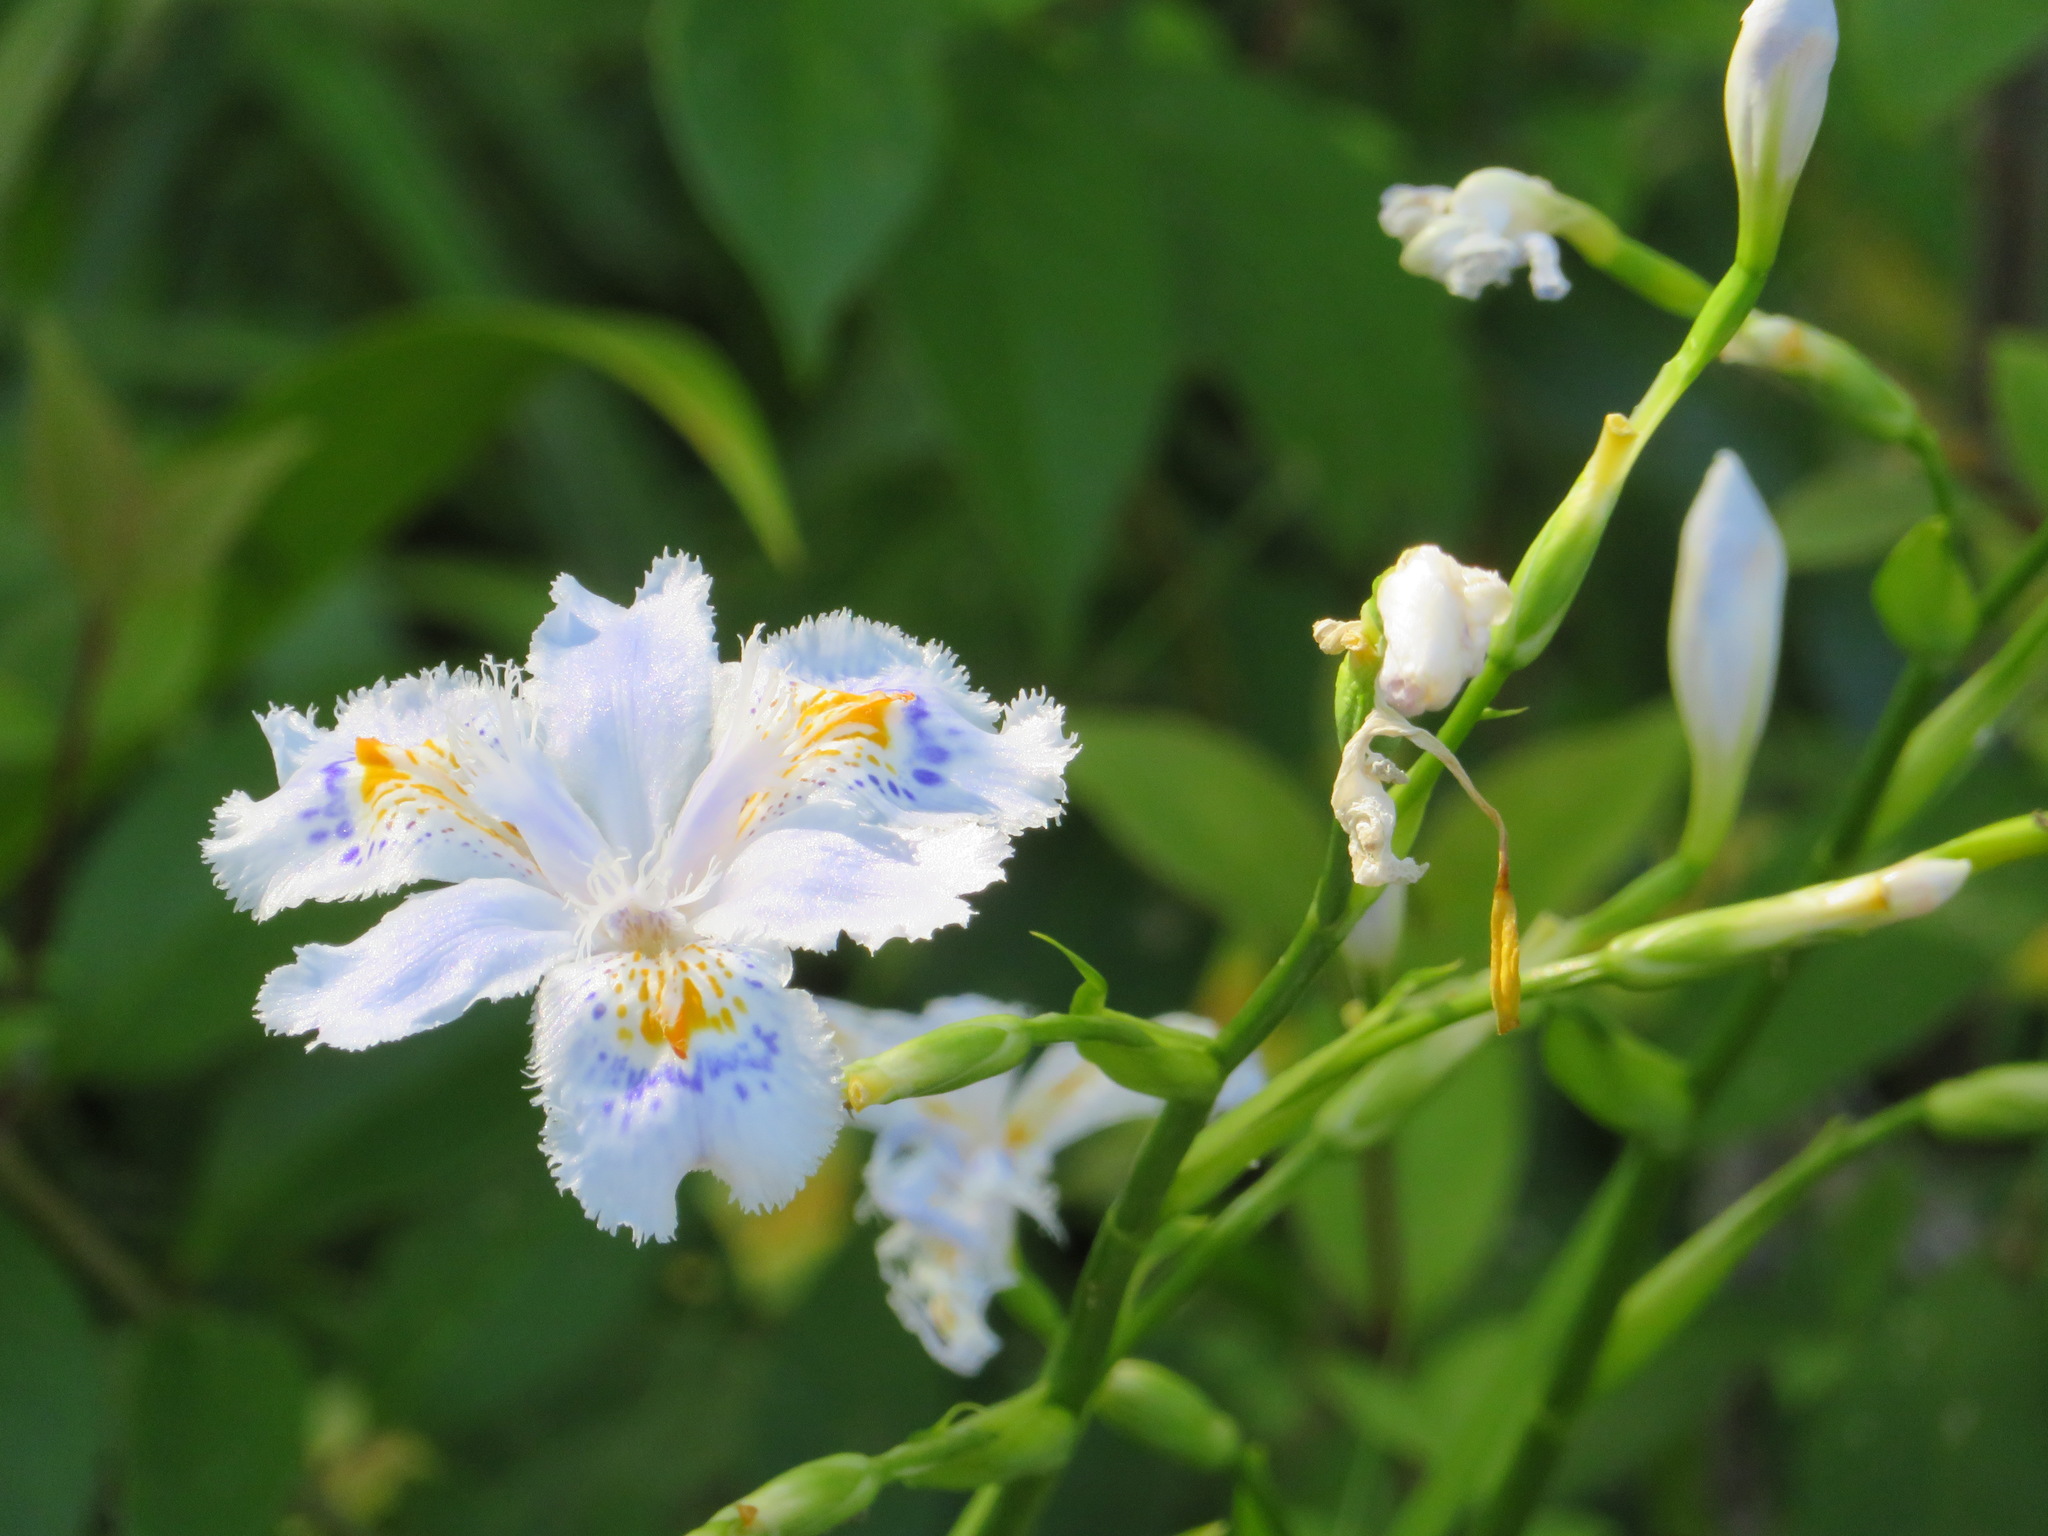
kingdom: Plantae
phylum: Tracheophyta
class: Liliopsida
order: Asparagales
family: Iridaceae
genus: Iris
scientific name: Iris japonica
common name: Butterfly-flower
